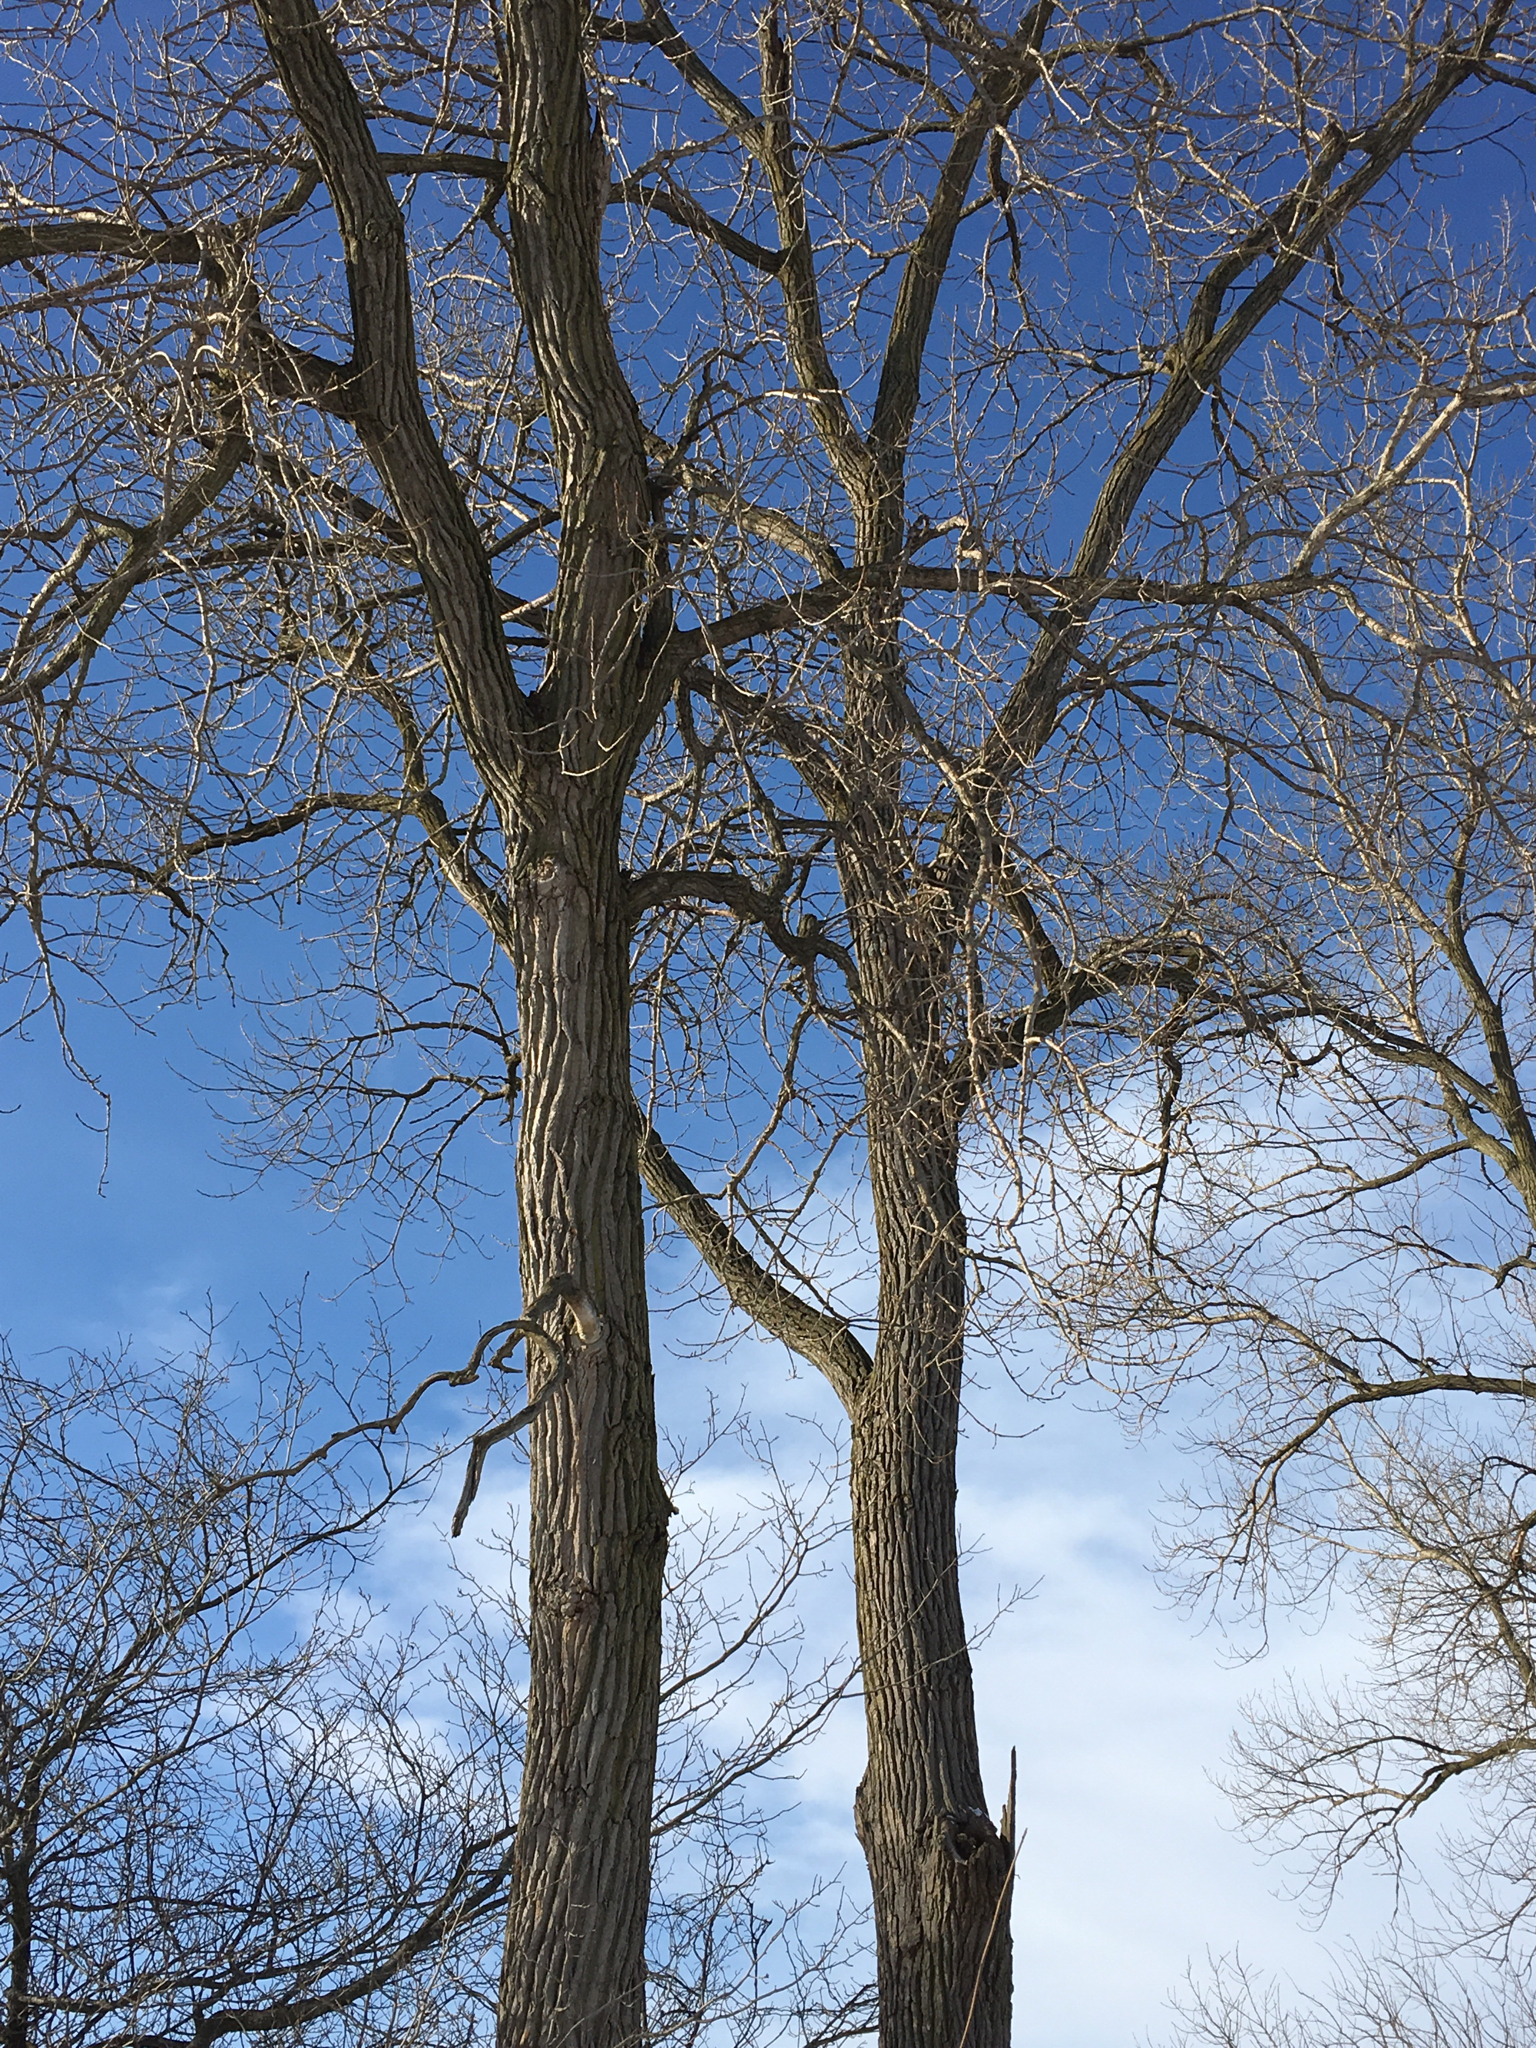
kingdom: Plantae
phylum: Tracheophyta
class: Magnoliopsida
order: Malpighiales
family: Salicaceae
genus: Populus
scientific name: Populus deltoides
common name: Eastern cottonwood
